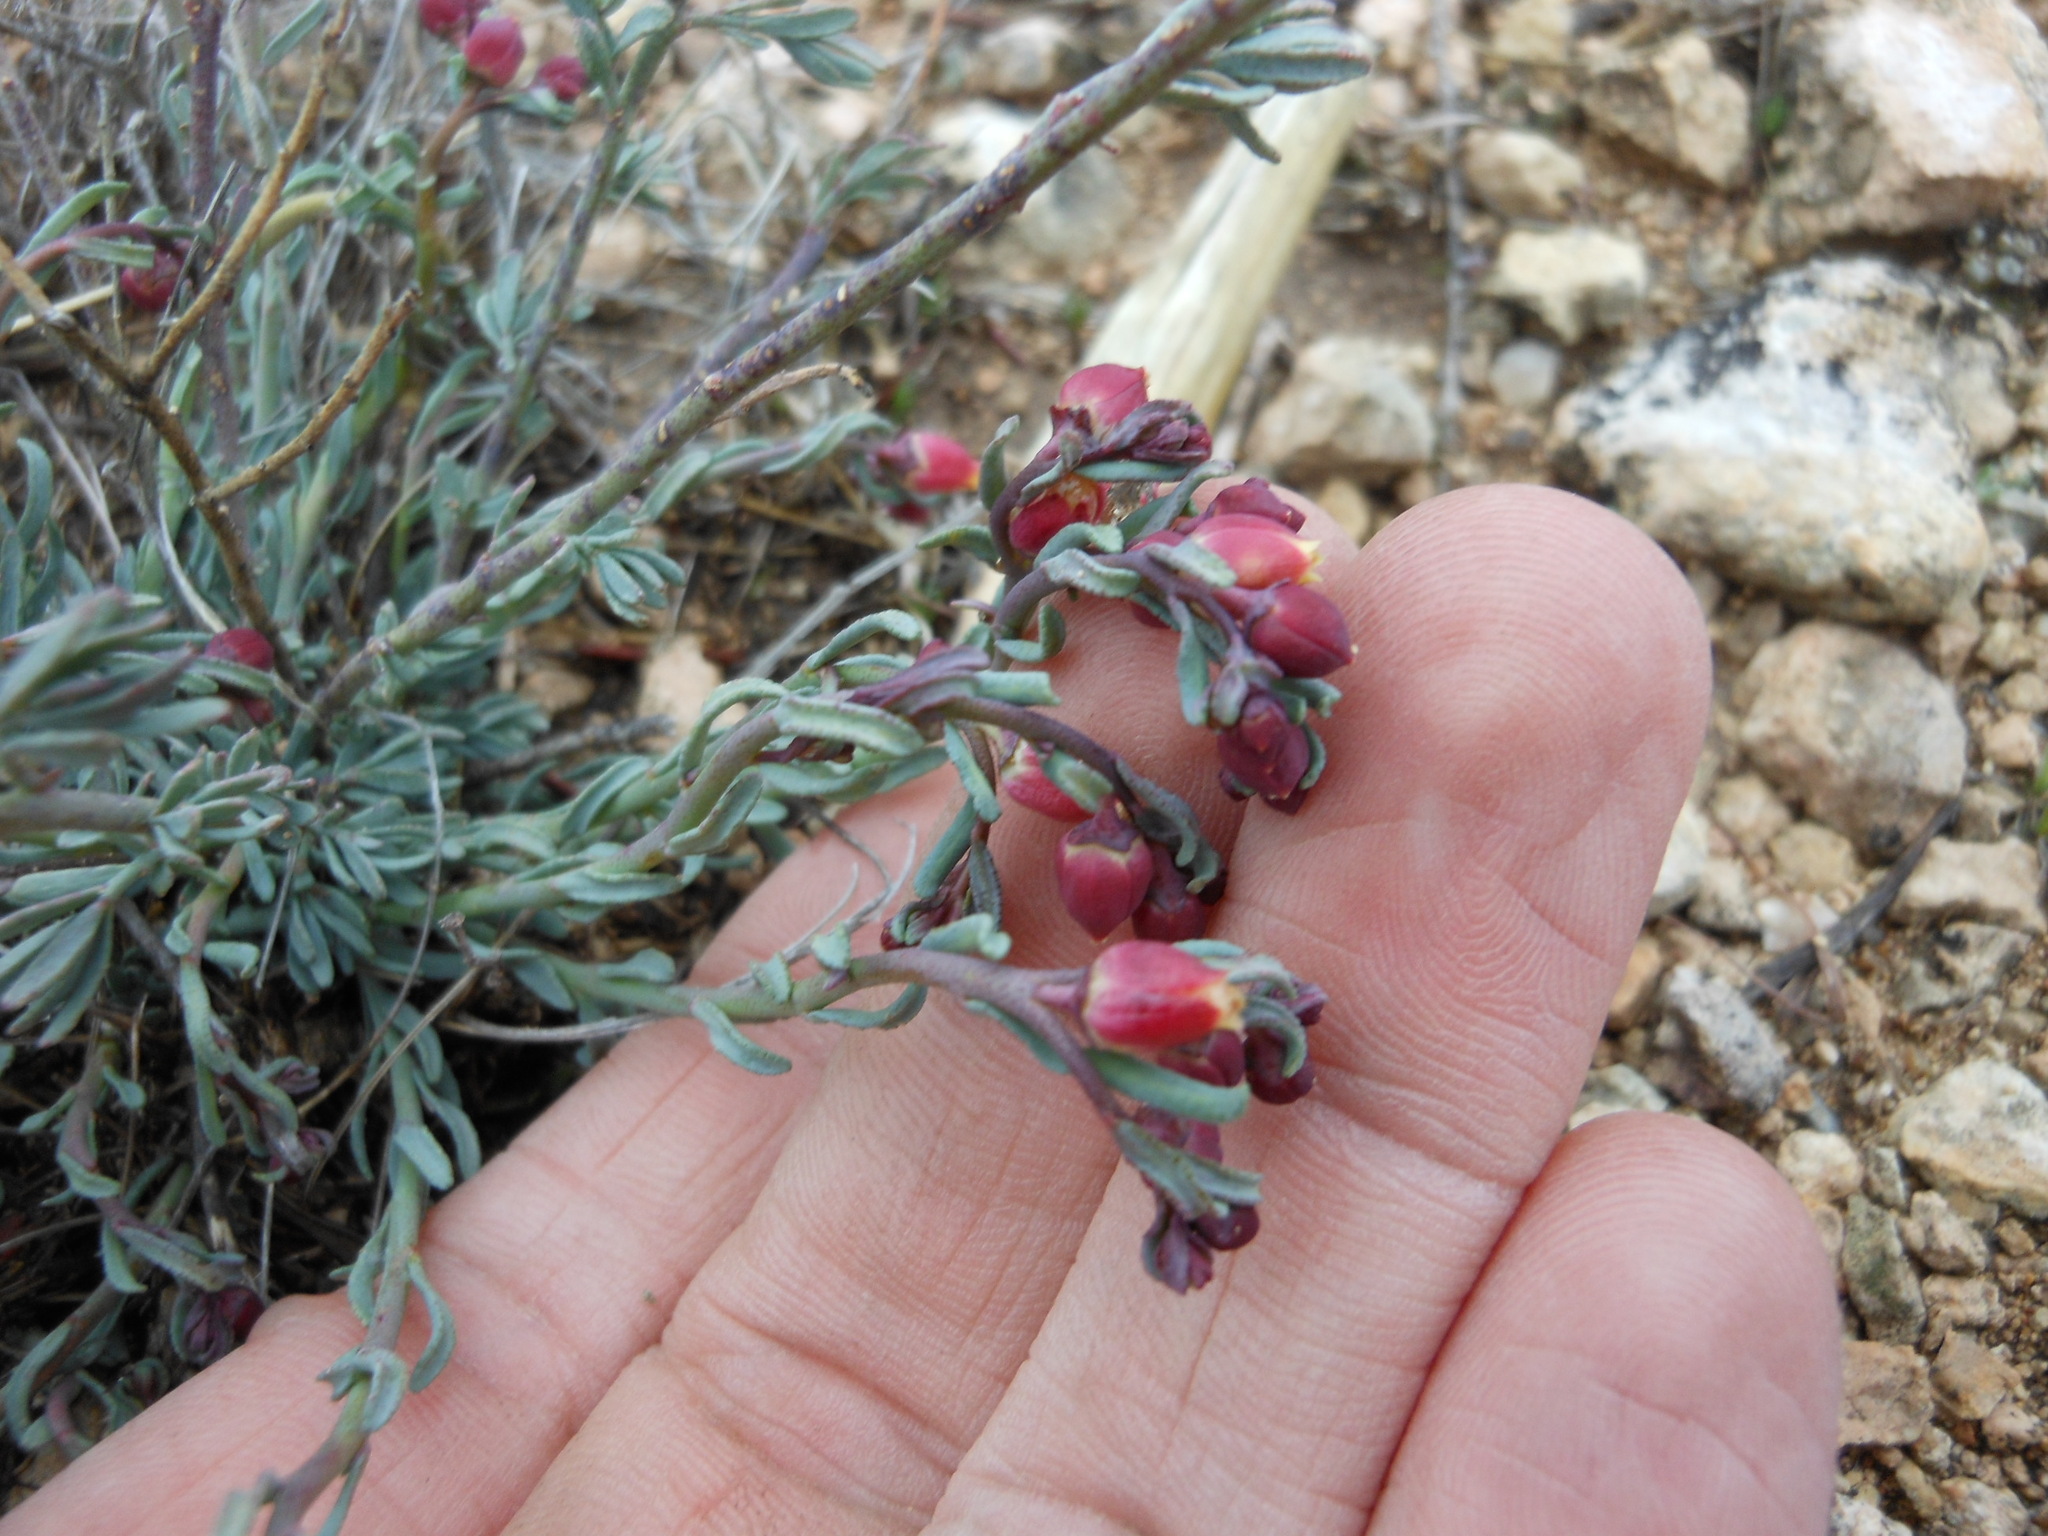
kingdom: Plantae
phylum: Tracheophyta
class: Magnoliopsida
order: Sapindales
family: Rutaceae
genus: Thamnosma
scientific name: Thamnosma texana
